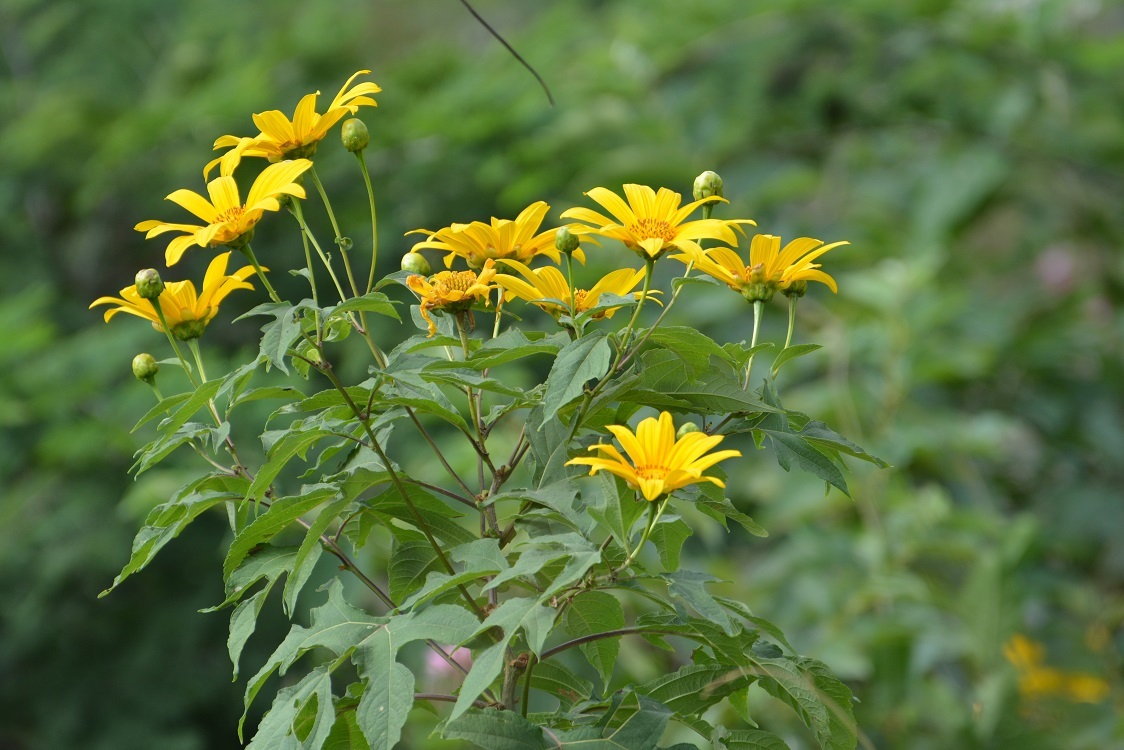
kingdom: Plantae
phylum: Tracheophyta
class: Magnoliopsida
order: Asterales
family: Asteraceae
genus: Tithonia
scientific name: Tithonia diversifolia
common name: Tree marigold
